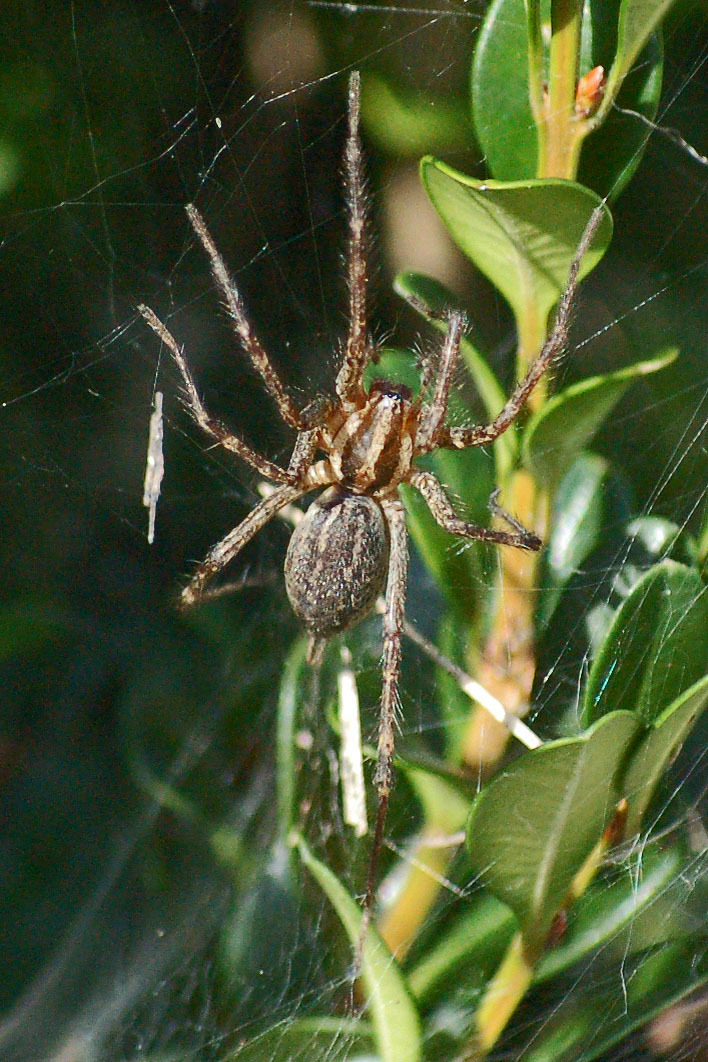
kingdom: Animalia
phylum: Arthropoda
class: Arachnida
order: Araneae
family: Agelenidae
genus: Agelenopsis
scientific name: Agelenopsis
